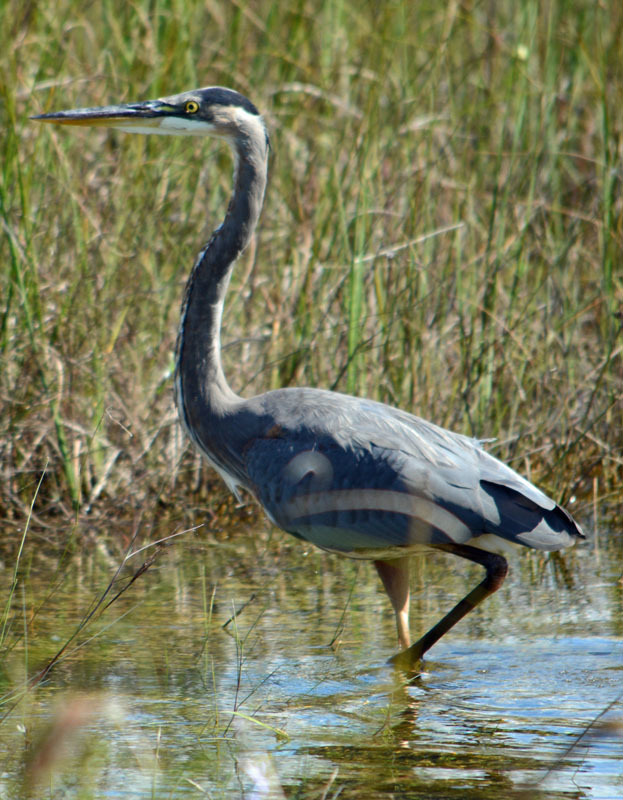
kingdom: Animalia
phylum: Chordata
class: Aves
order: Pelecaniformes
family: Ardeidae
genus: Ardea
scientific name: Ardea herodias
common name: Great blue heron
